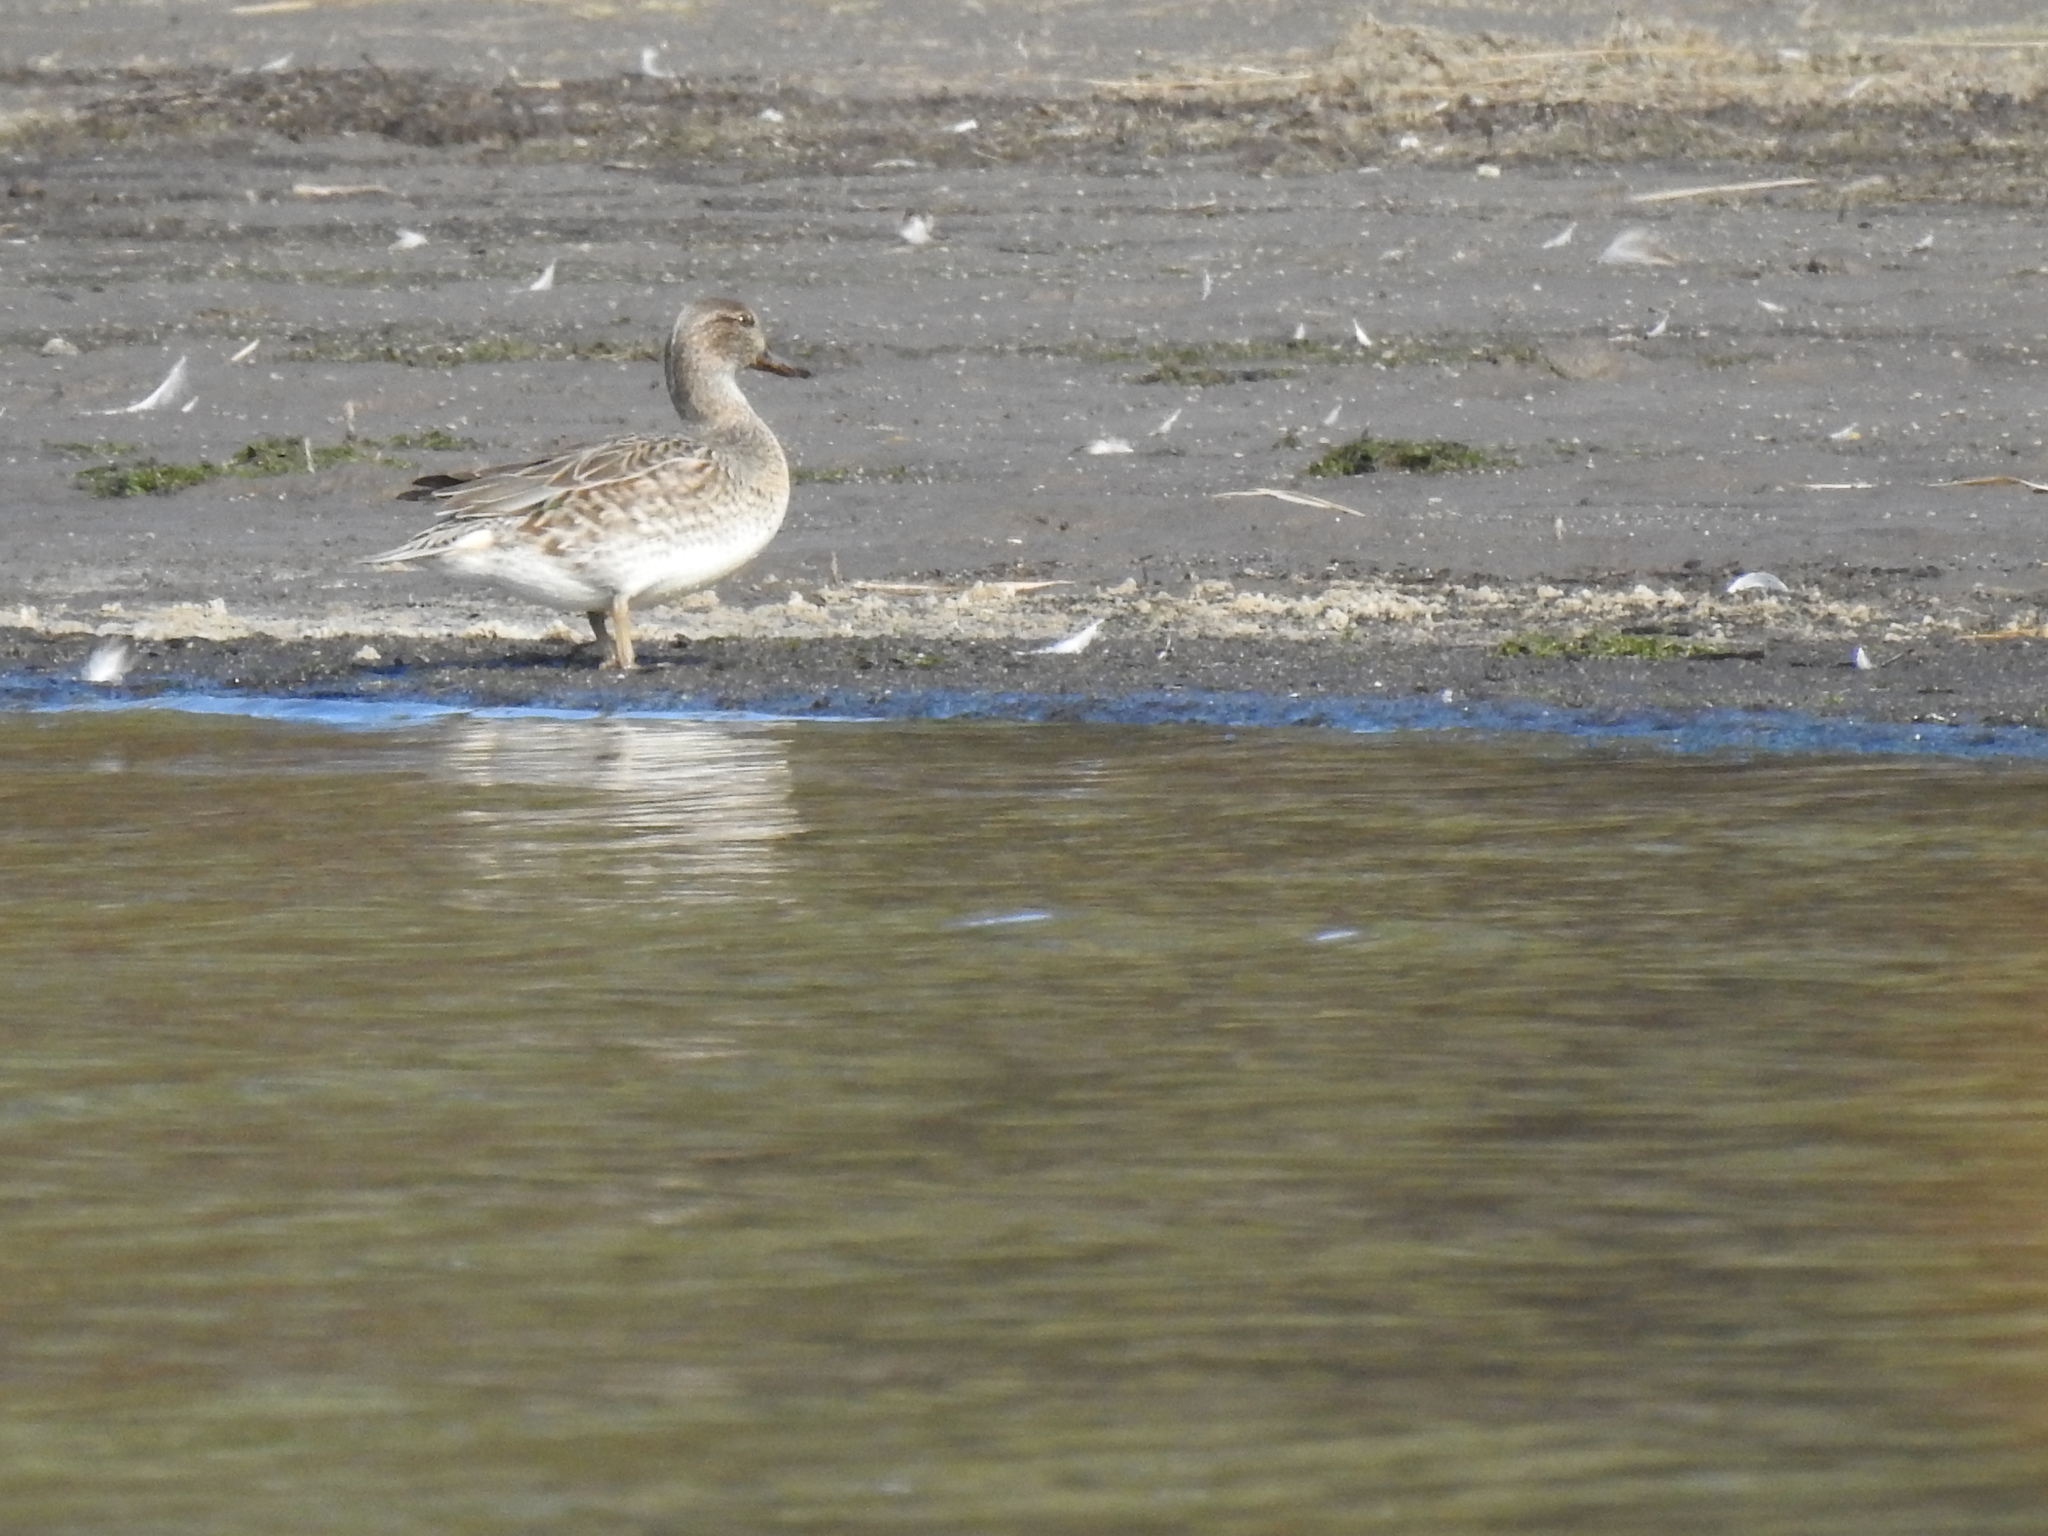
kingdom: Animalia
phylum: Chordata
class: Aves
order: Anseriformes
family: Anatidae
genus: Anas
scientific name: Anas crecca
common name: Eurasian teal
